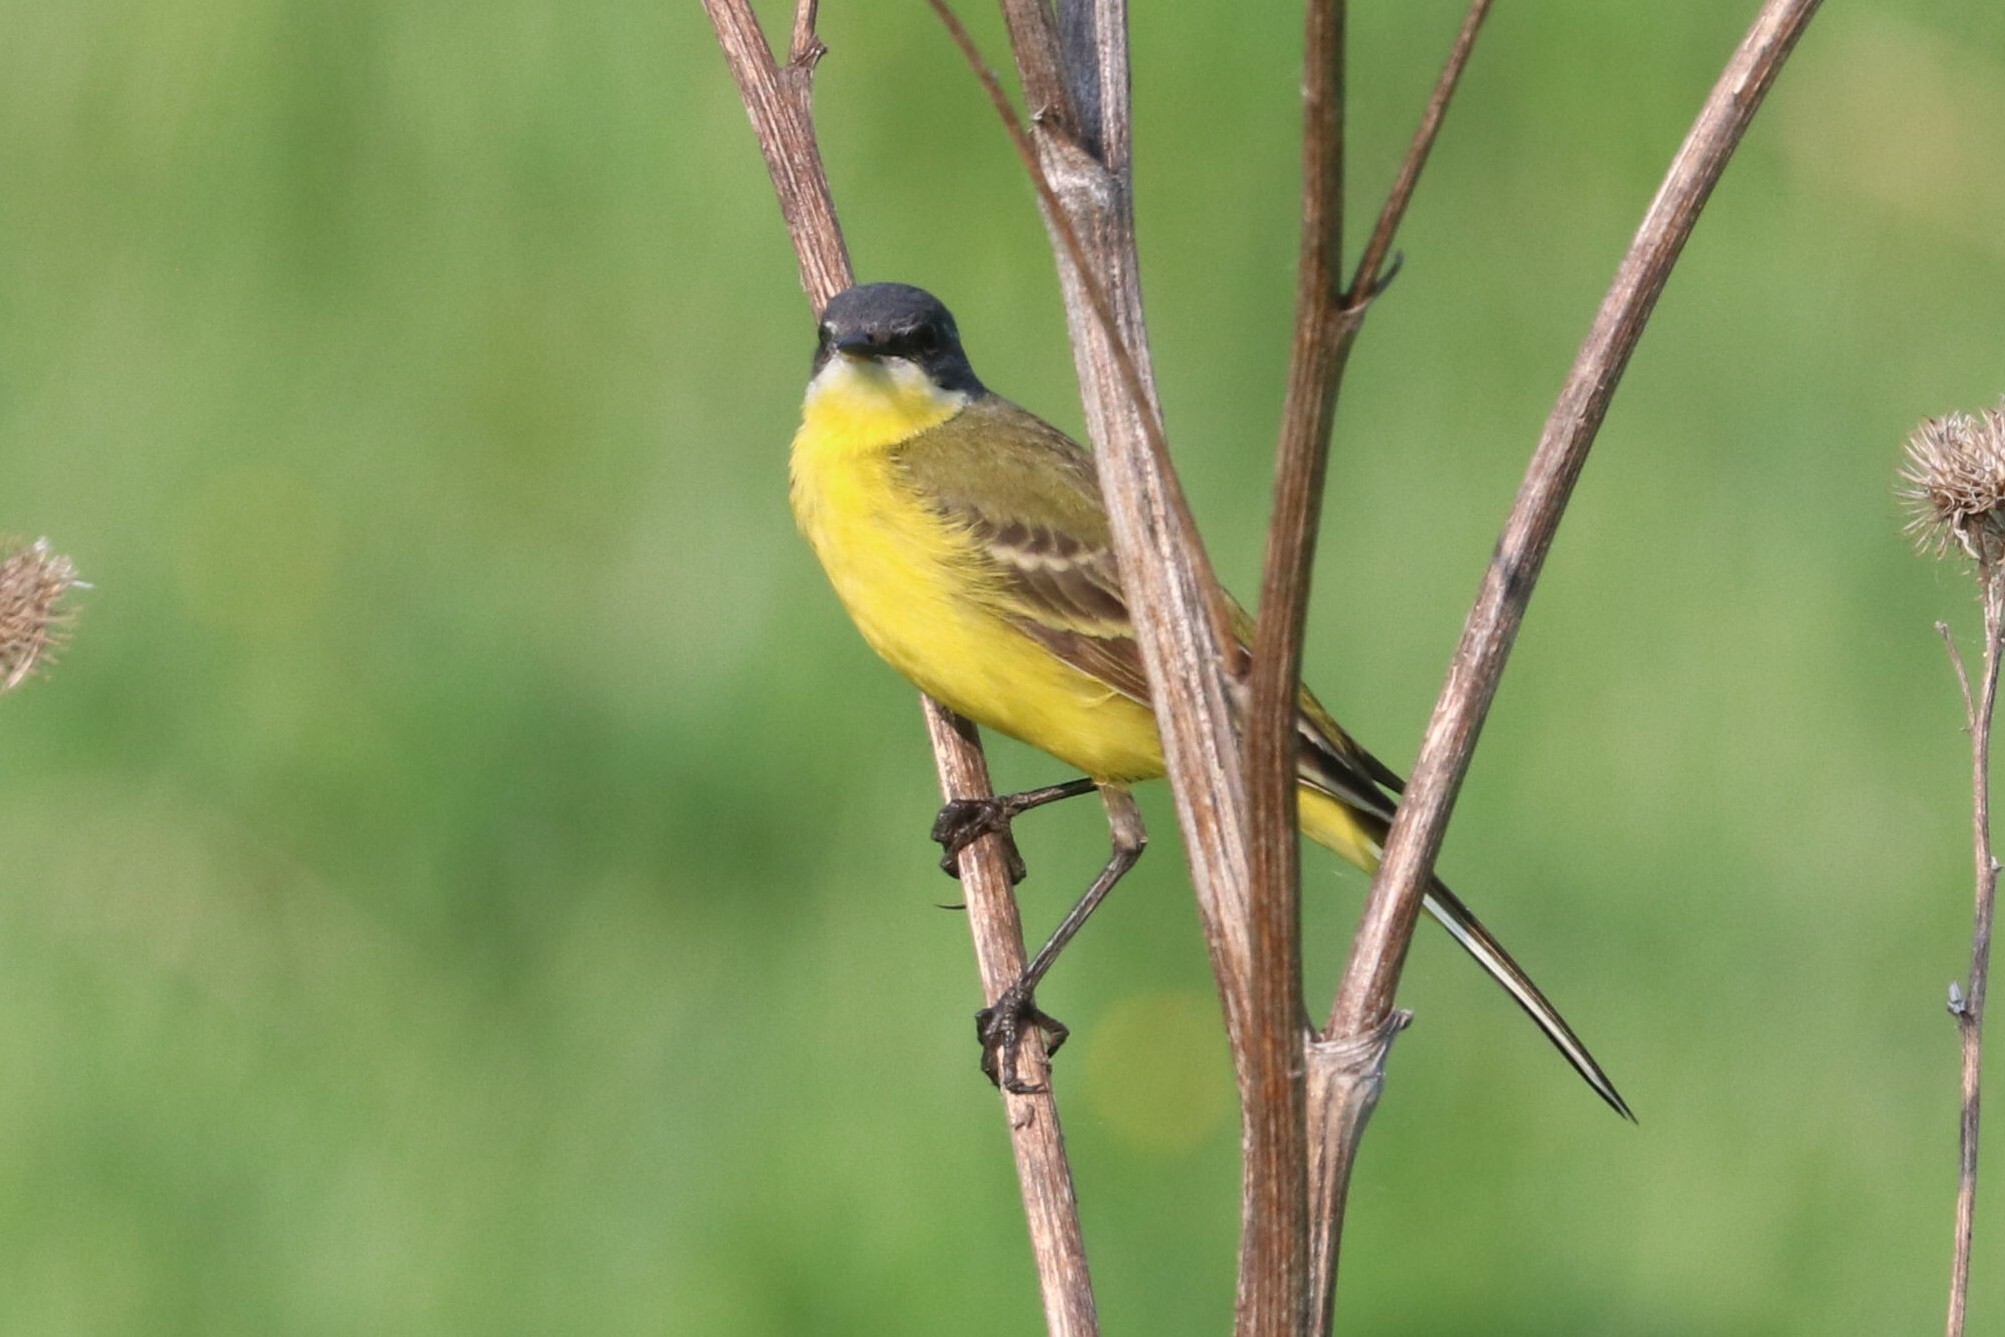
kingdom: Animalia
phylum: Chordata
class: Aves
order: Passeriformes
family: Motacillidae
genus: Motacilla
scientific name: Motacilla flava
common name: Western yellow wagtail
